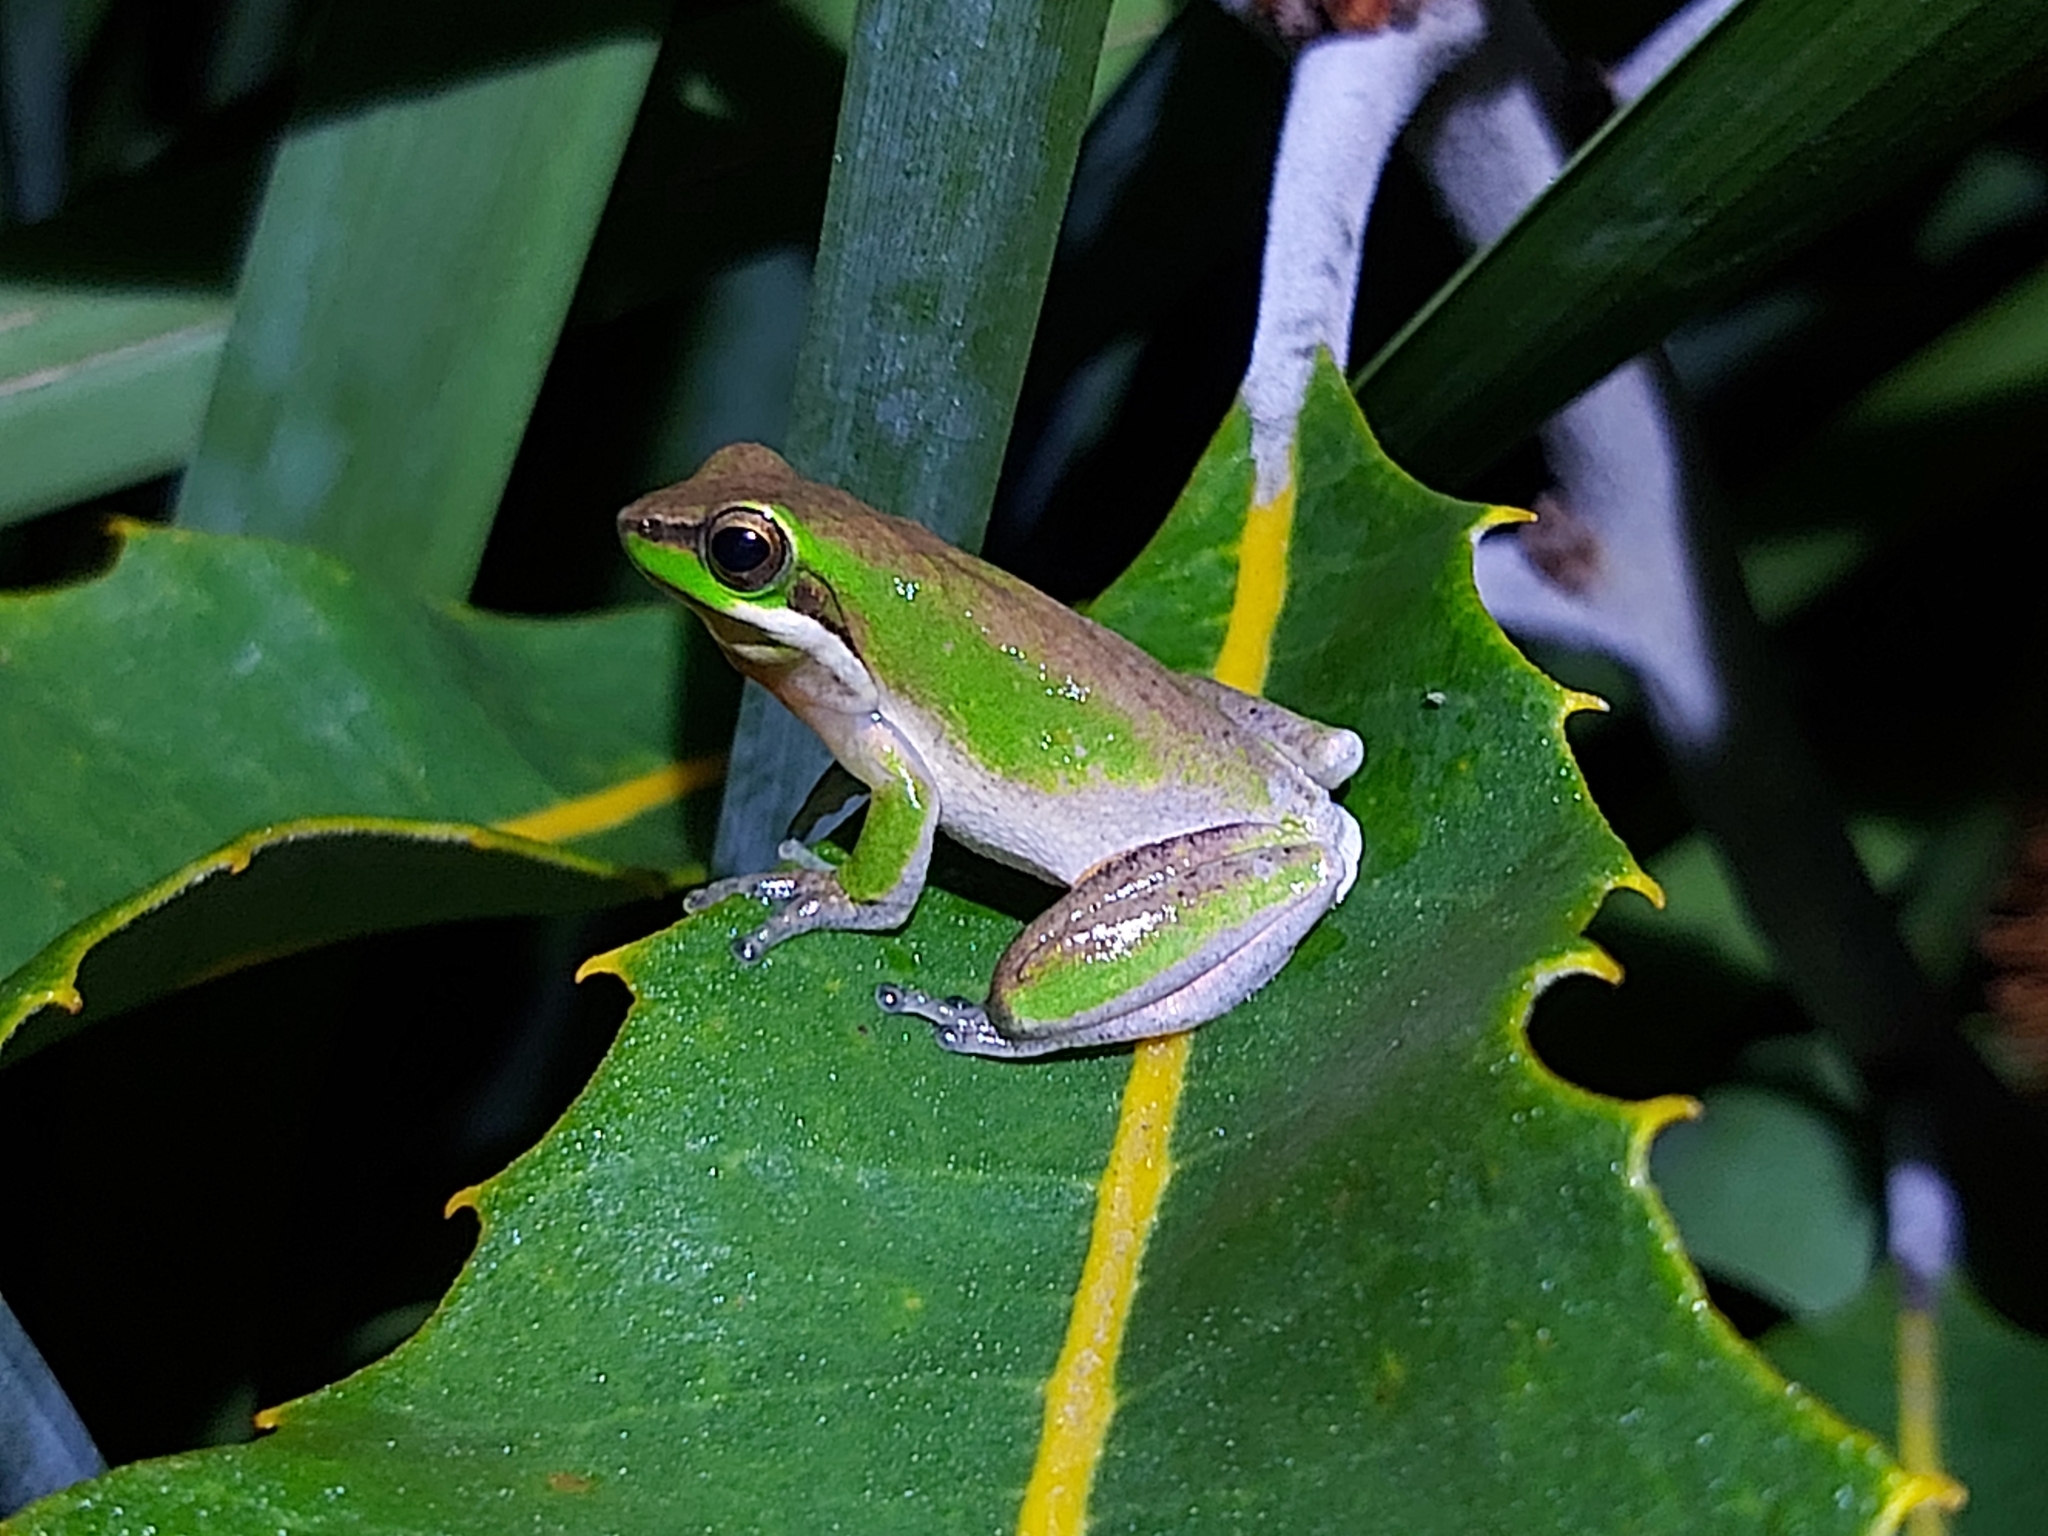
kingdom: Animalia
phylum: Chordata
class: Amphibia
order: Anura
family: Pelodryadidae
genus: Litoria
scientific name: Litoria fallax
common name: Eastern dwarf treefrog
